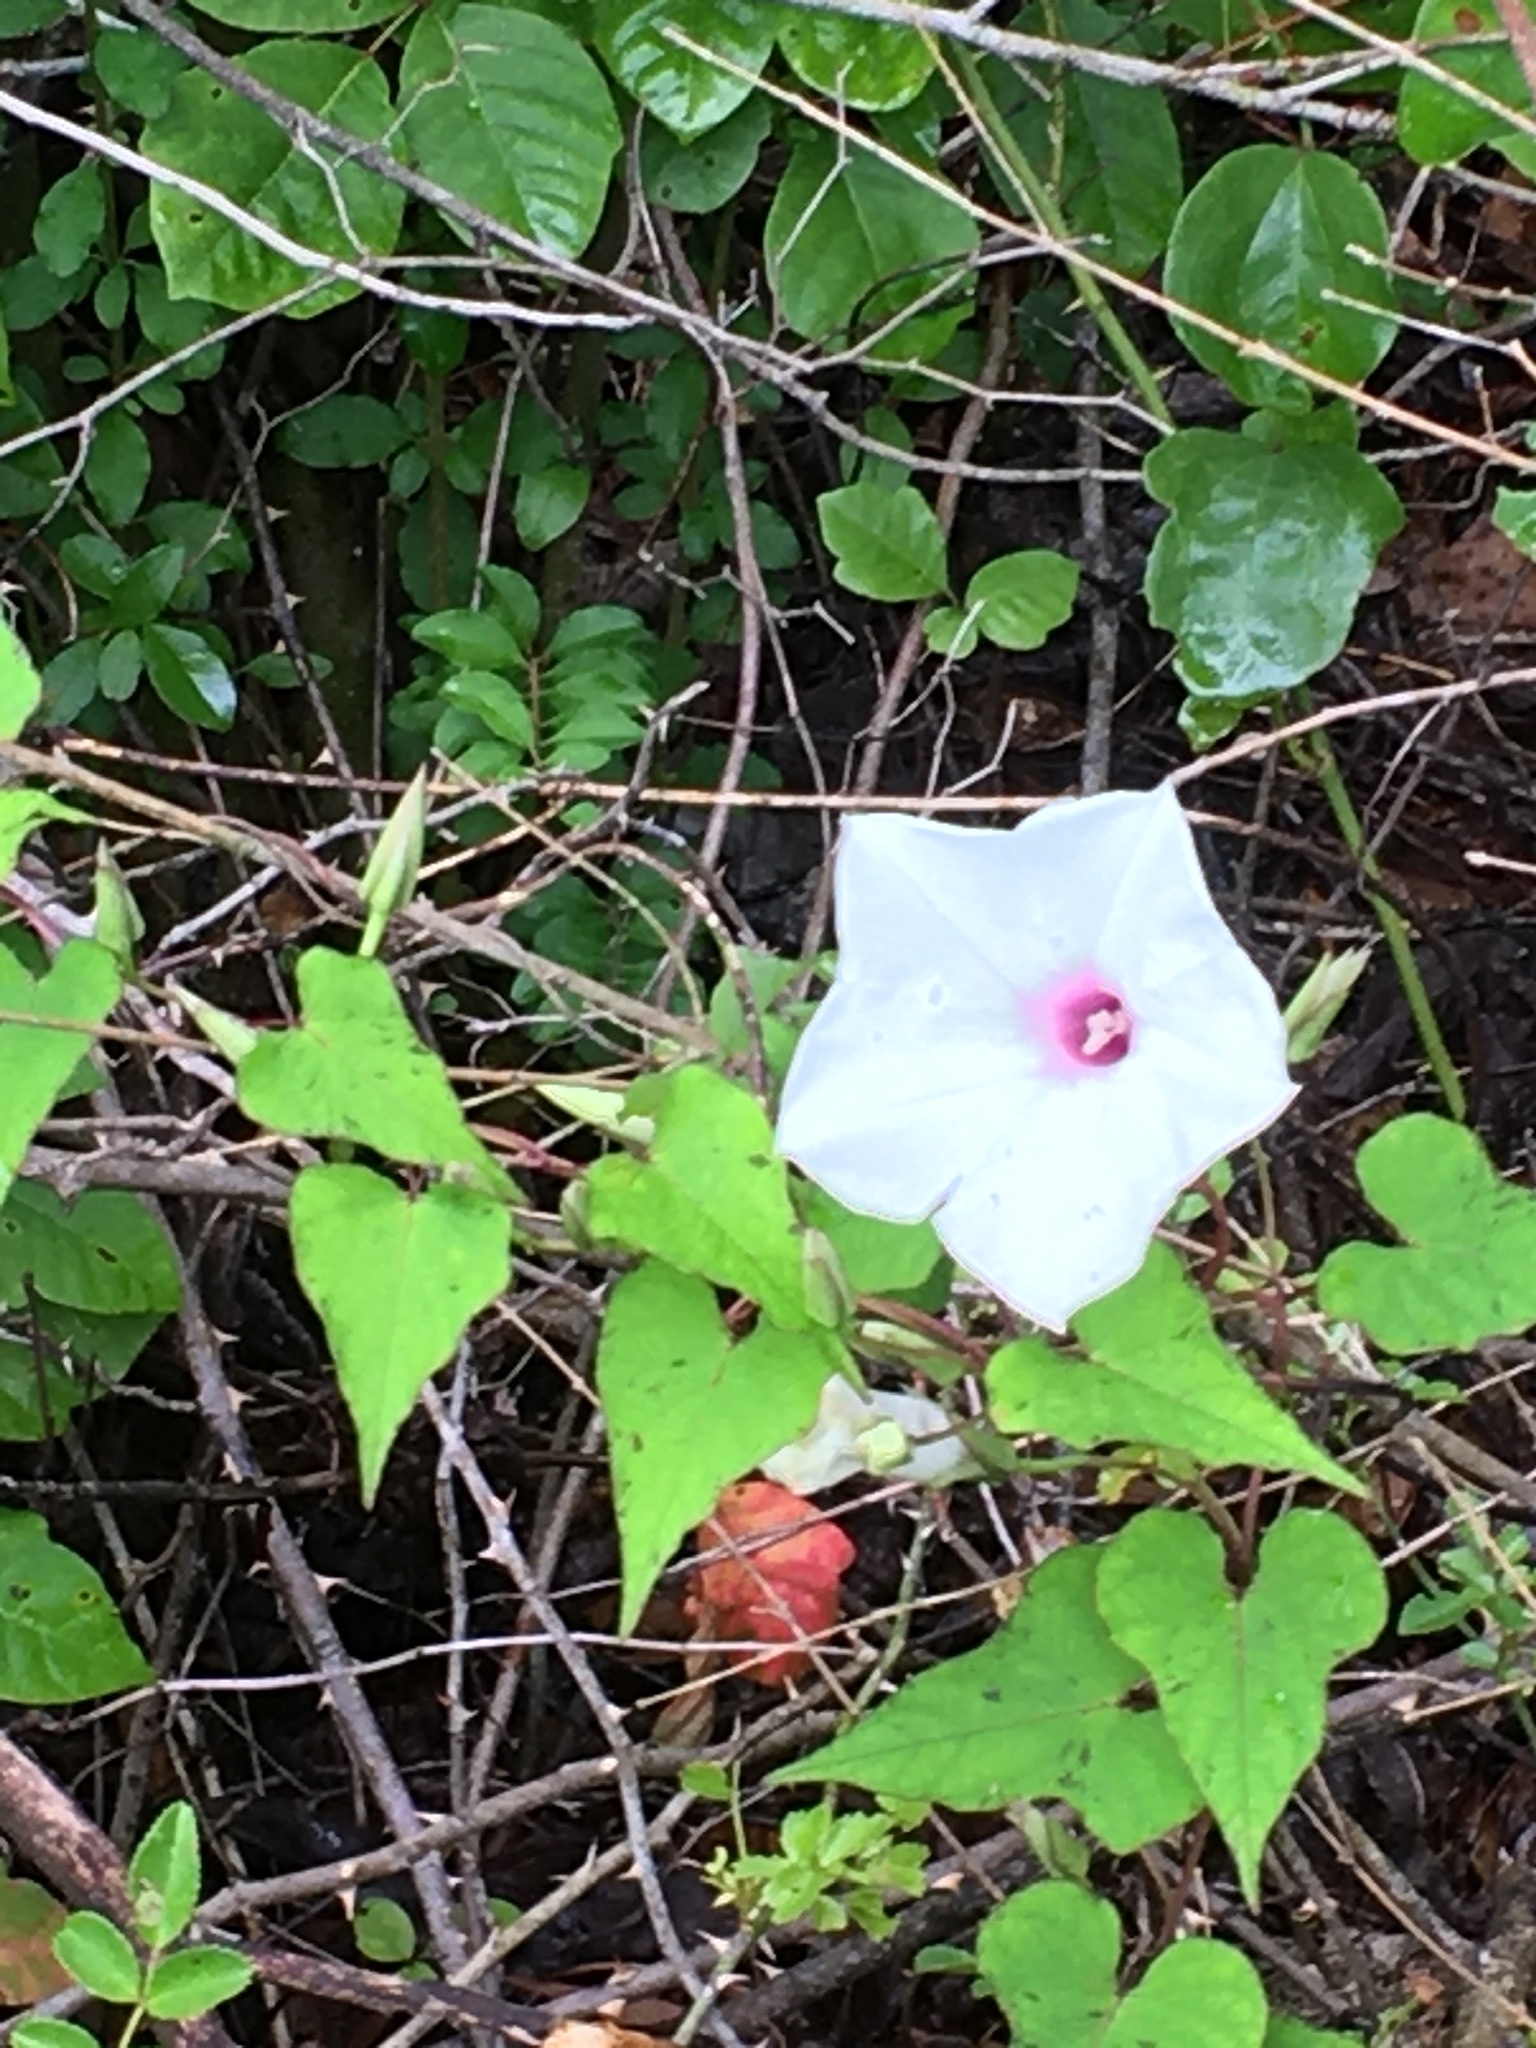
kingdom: Plantae
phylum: Tracheophyta
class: Magnoliopsida
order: Solanales
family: Convolvulaceae
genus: Ipomoea
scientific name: Ipomoea pandurata
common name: Man-of-the-earth
